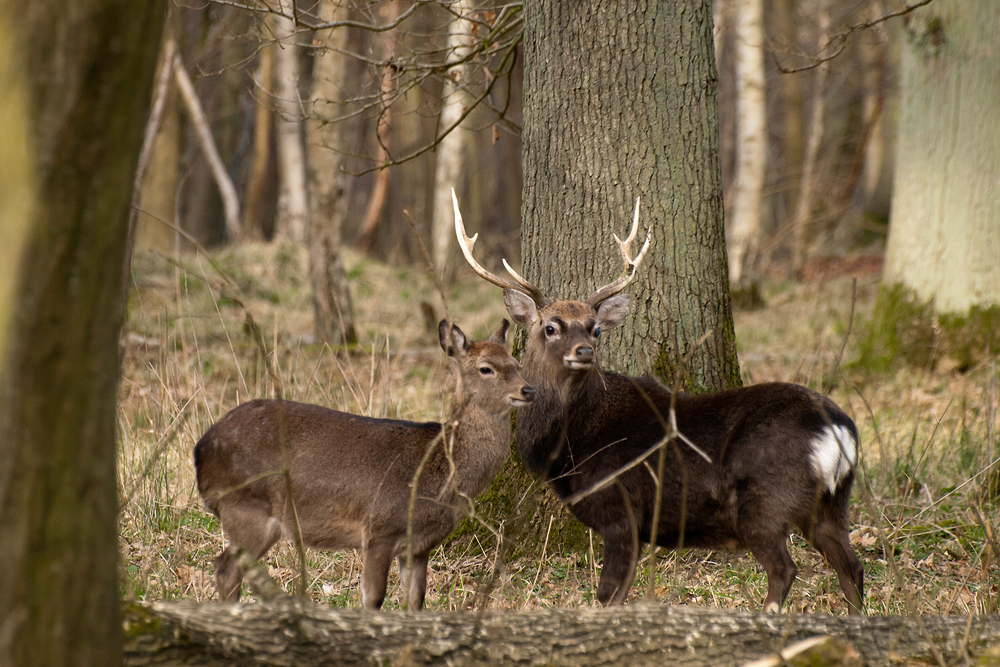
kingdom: Animalia
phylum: Chordata
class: Mammalia
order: Artiodactyla
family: Cervidae
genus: Cervus
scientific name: Cervus nippon
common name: Sika deer
